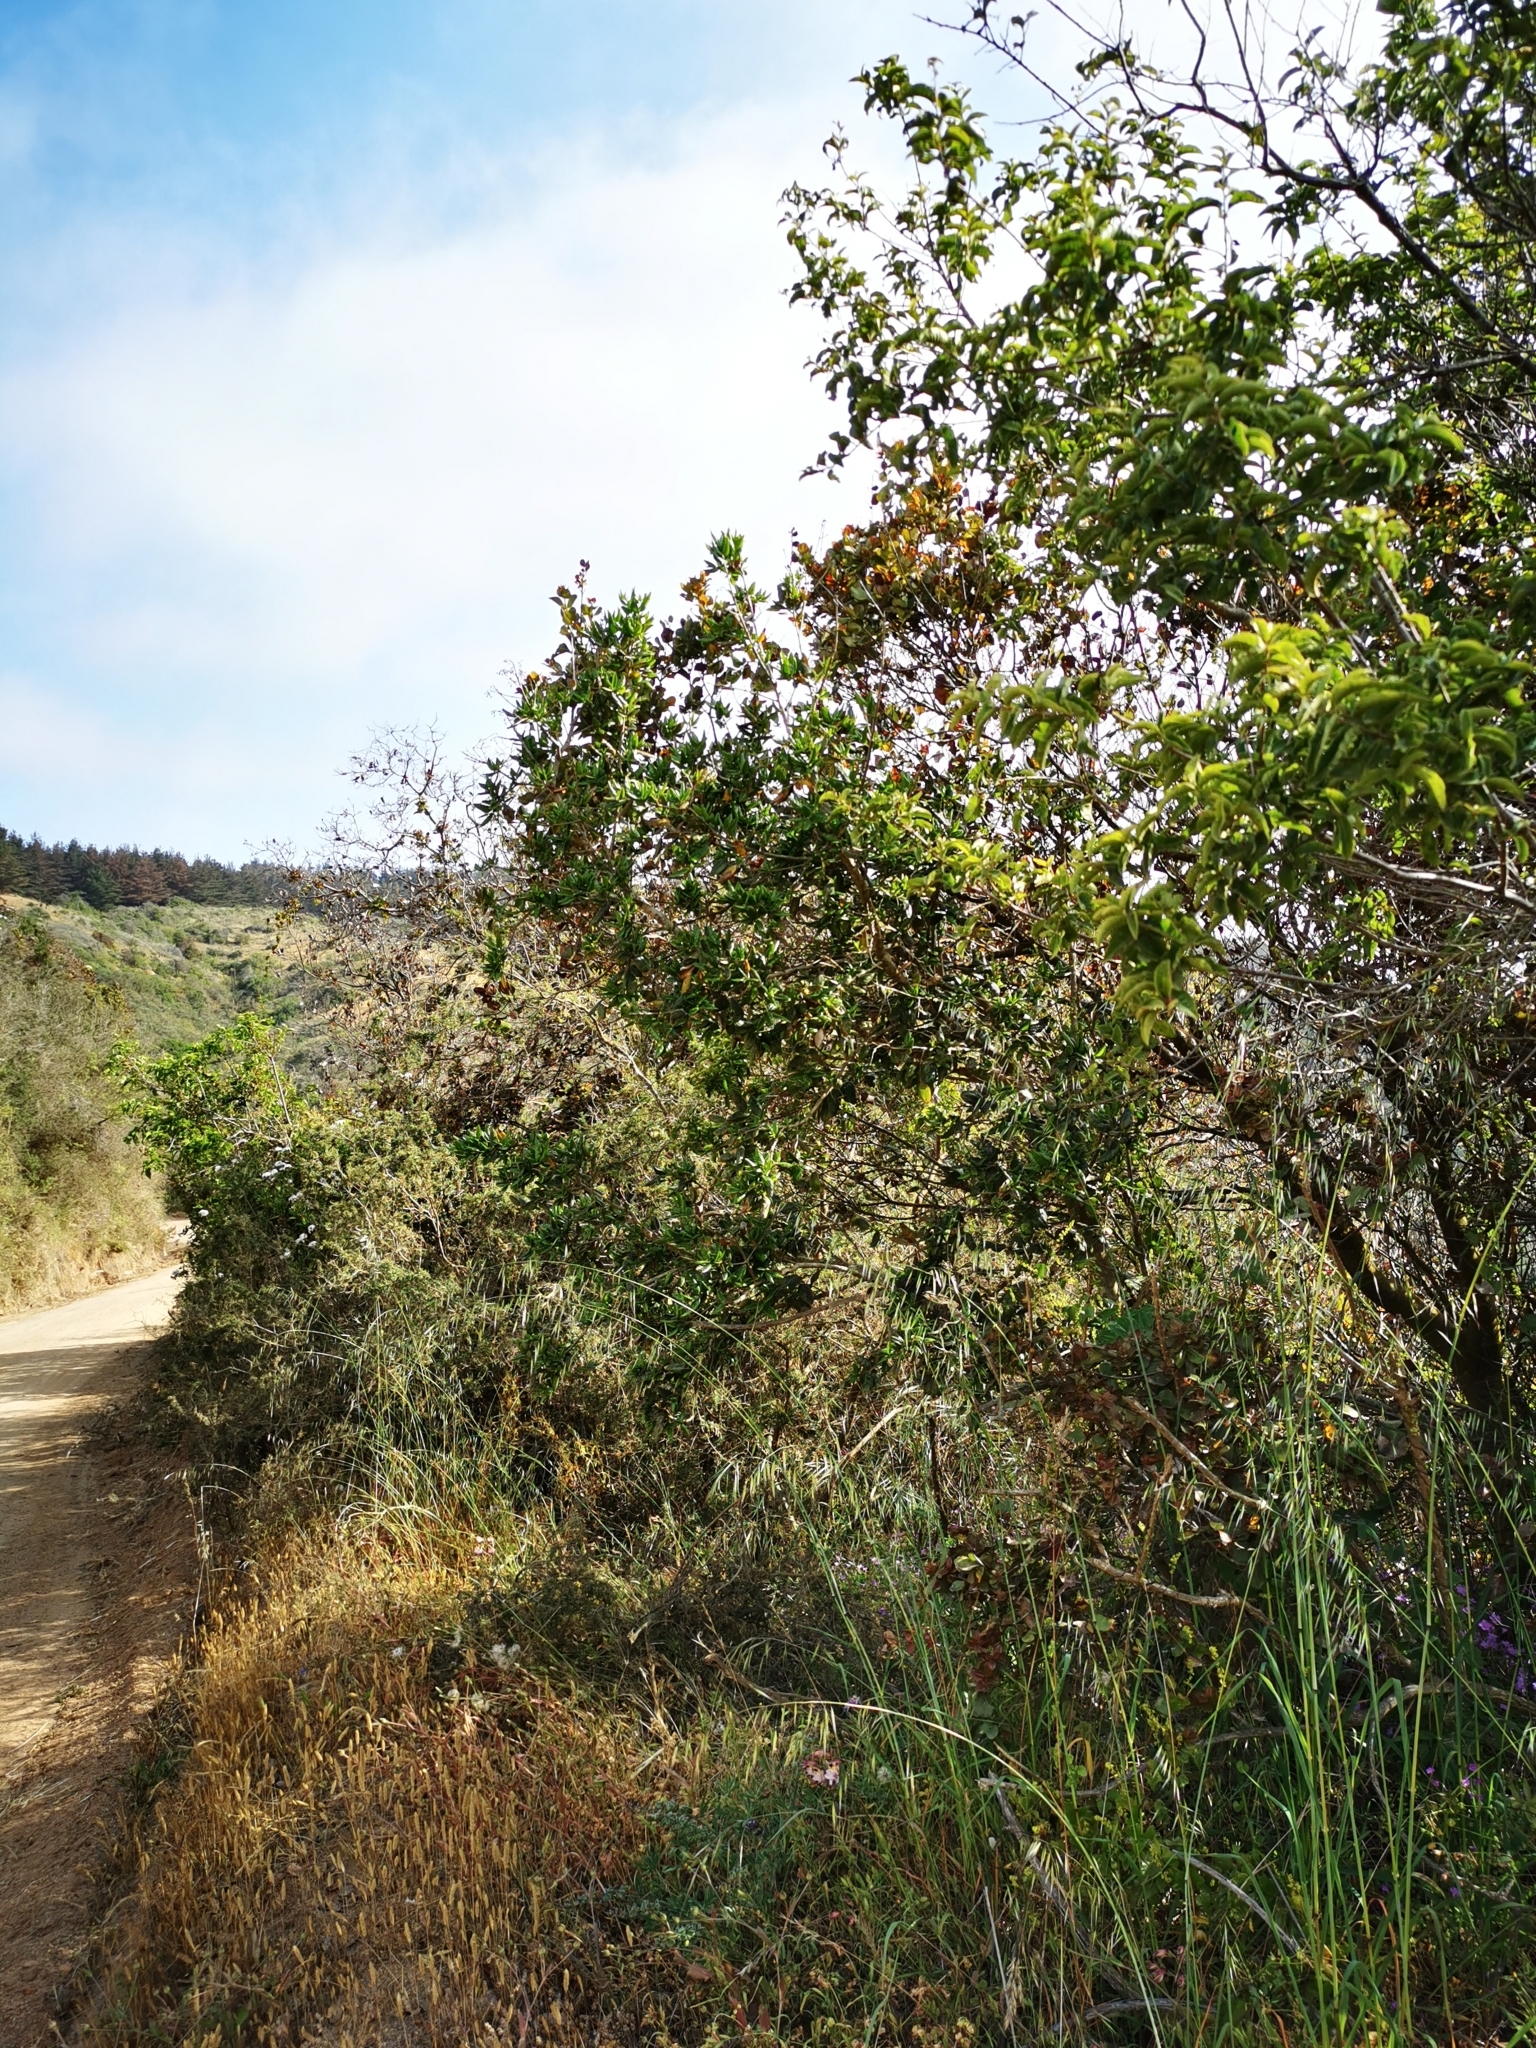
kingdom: Plantae
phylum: Tracheophyta
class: Magnoliopsida
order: Laurales
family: Monimiaceae
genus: Peumus
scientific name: Peumus boldus
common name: Boldo
